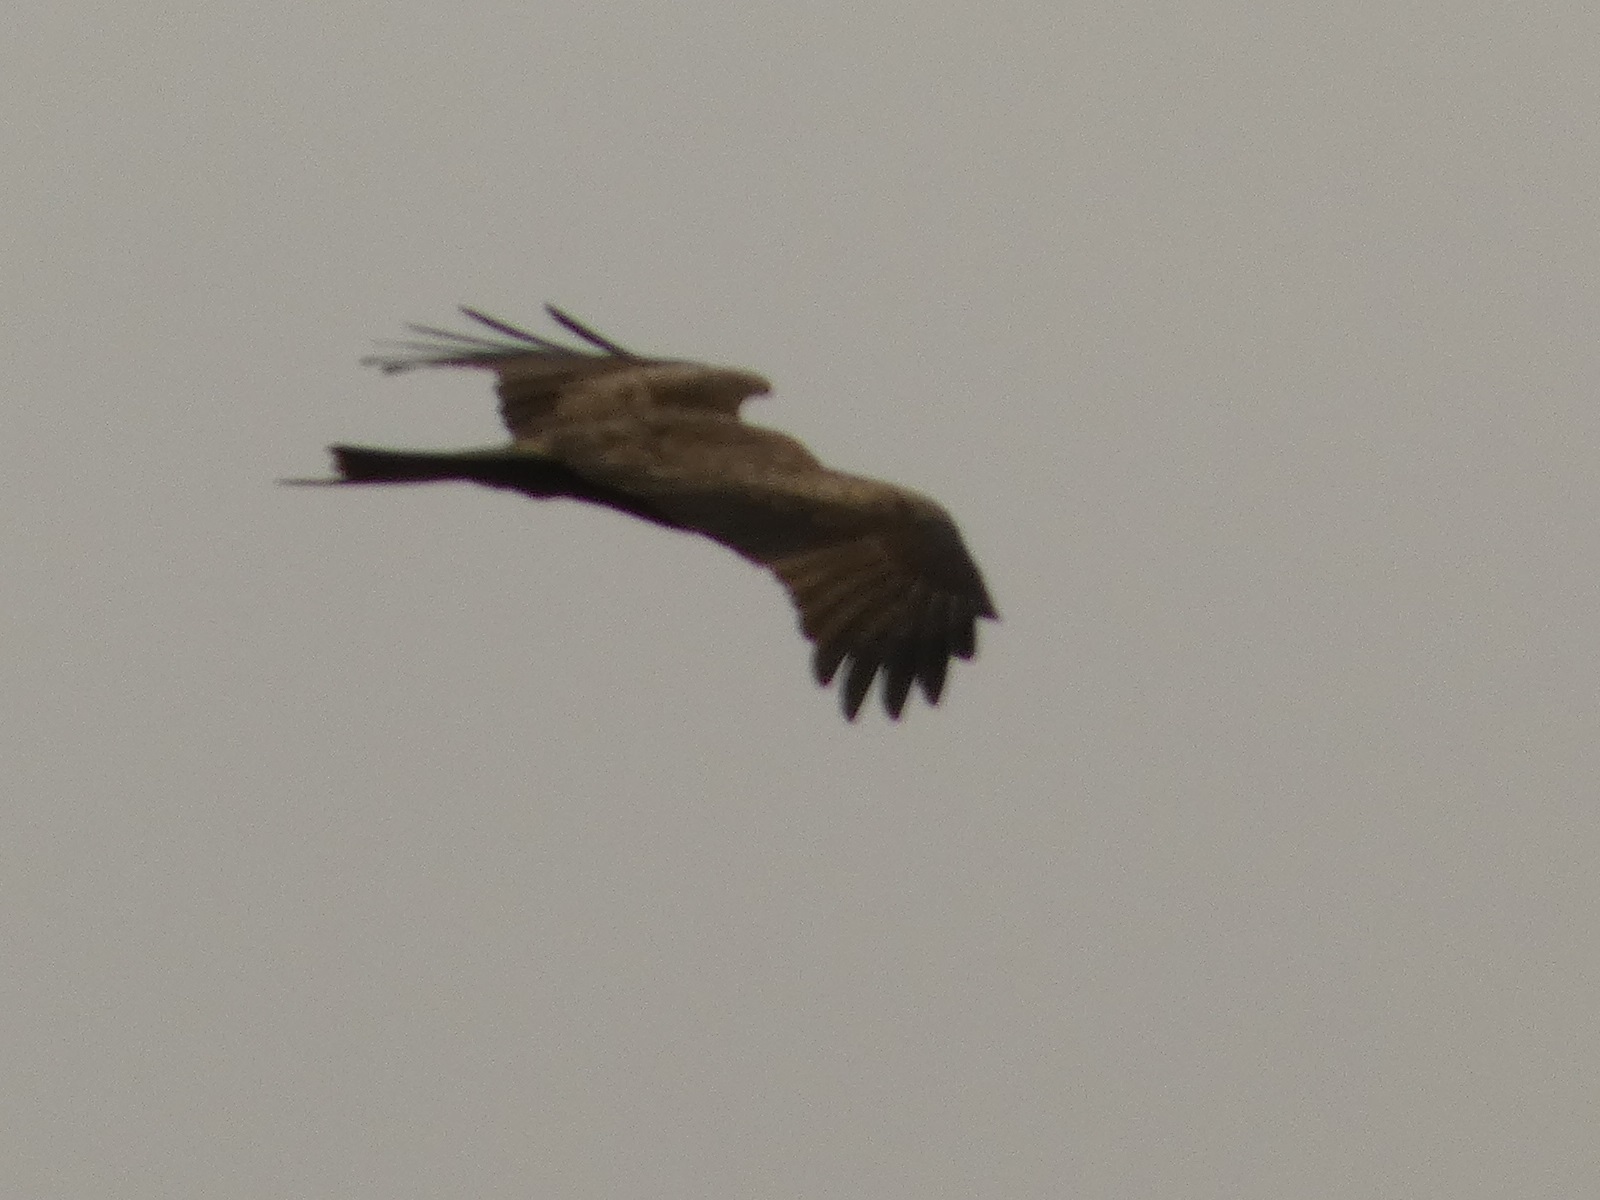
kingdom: Animalia
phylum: Chordata
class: Aves
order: Accipitriformes
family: Accipitridae
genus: Milvus
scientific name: Milvus migrans
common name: Black kite
